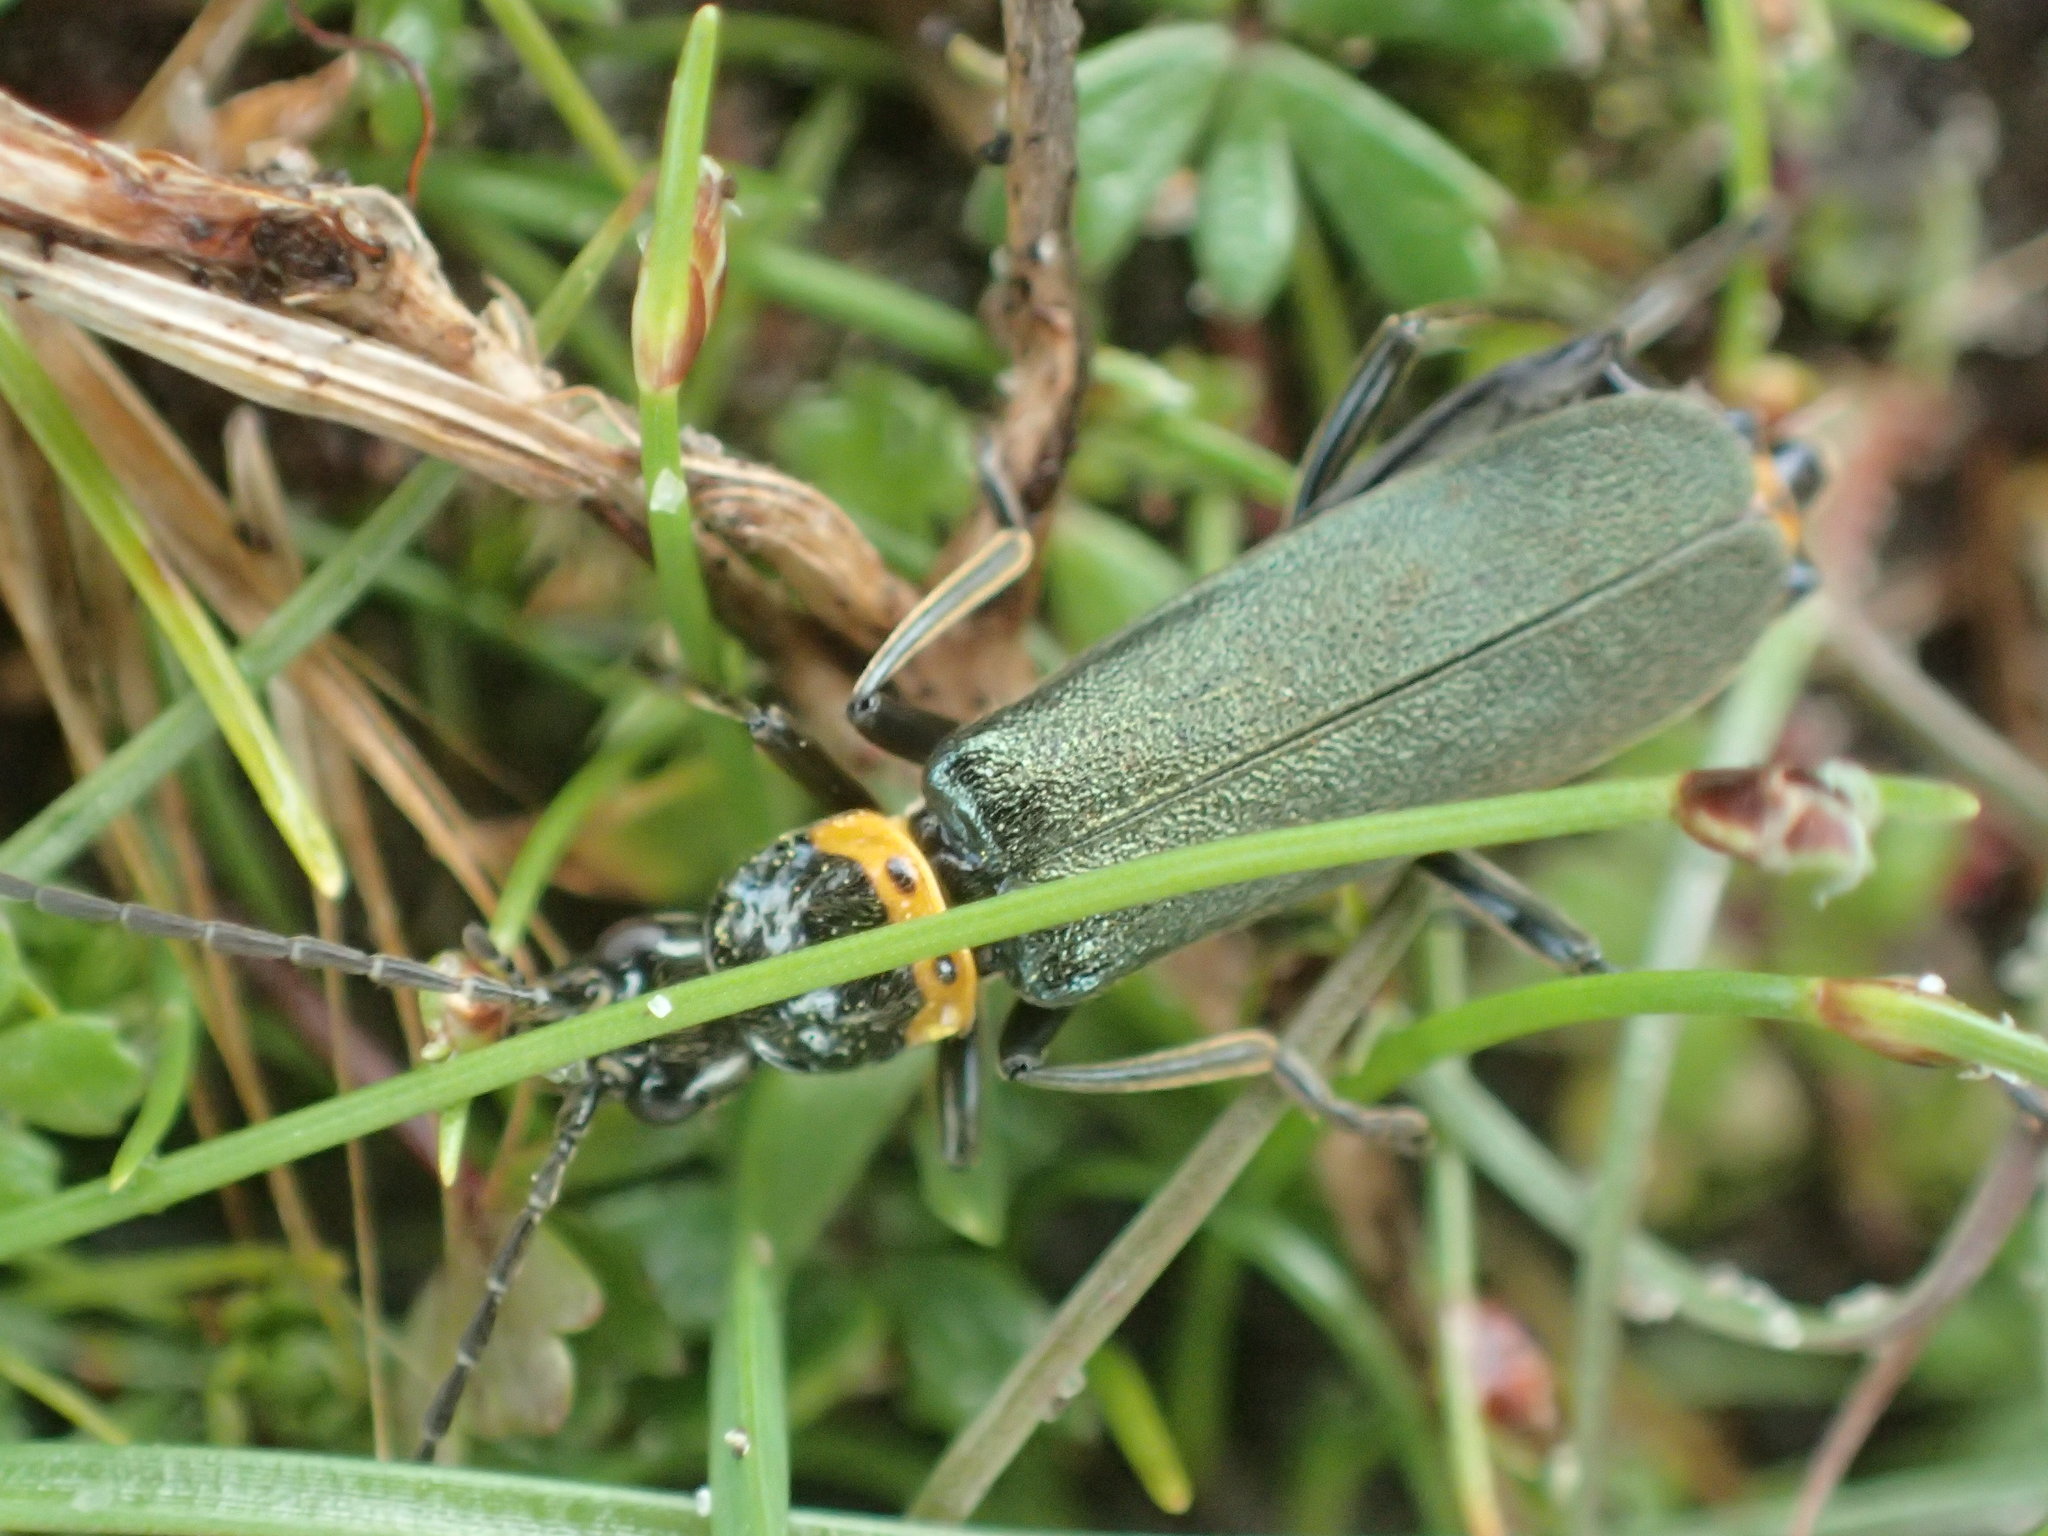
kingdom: Animalia
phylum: Arthropoda
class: Insecta
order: Coleoptera
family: Cantharidae
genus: Chauliognathus
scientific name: Chauliognathus
